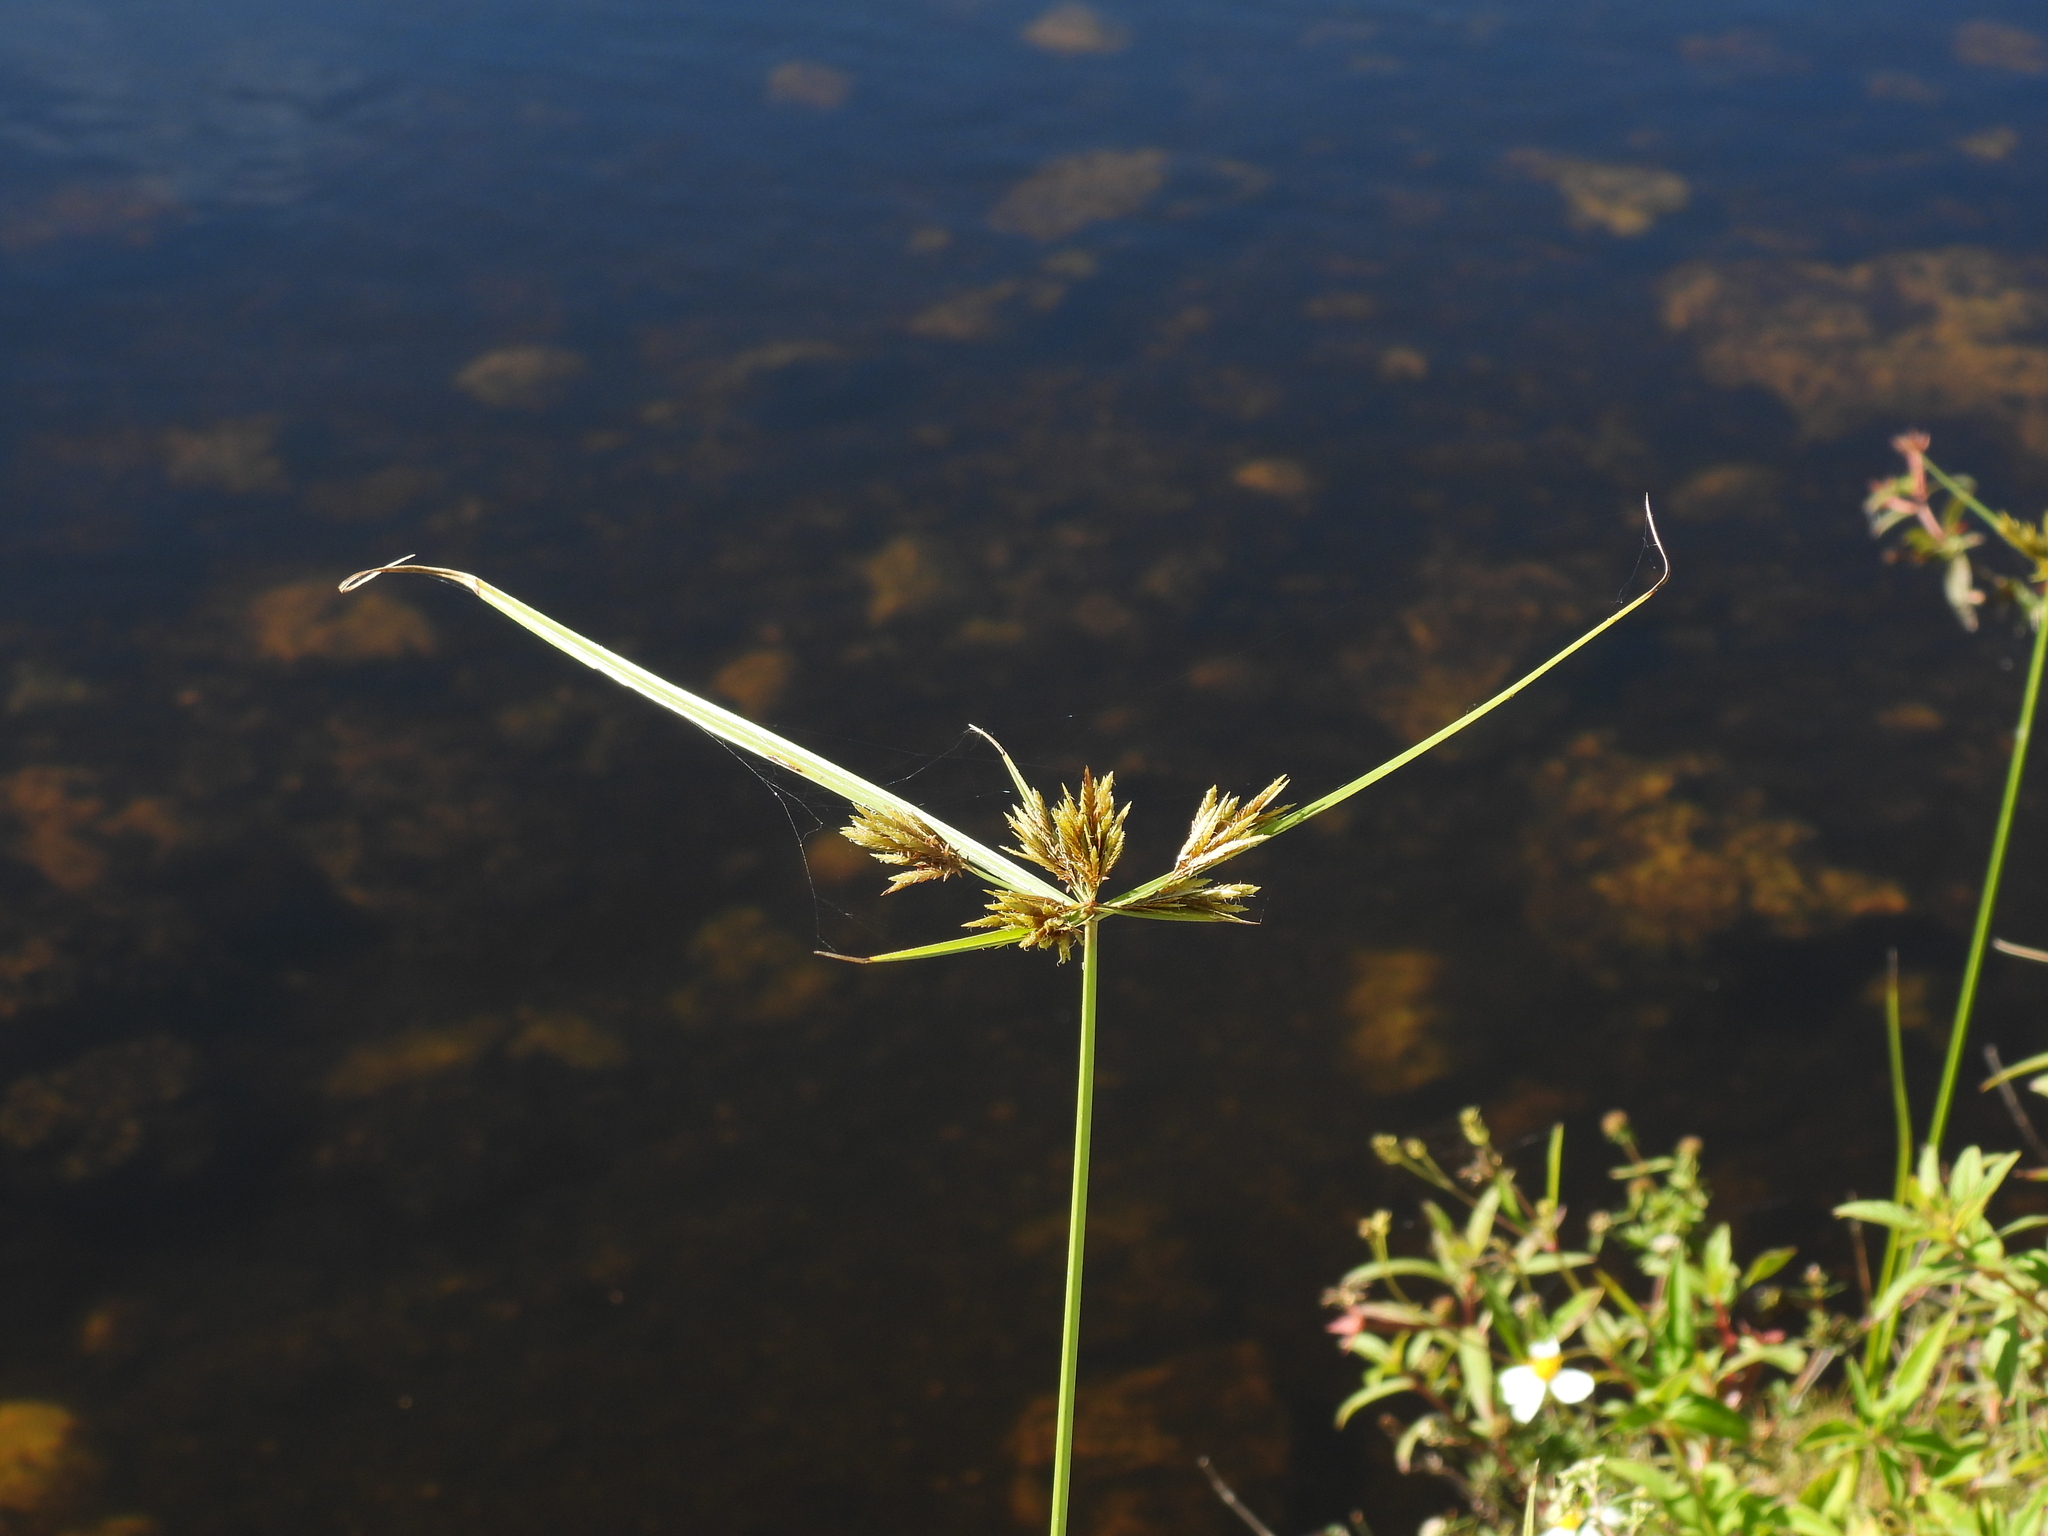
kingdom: Plantae
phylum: Tracheophyta
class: Liliopsida
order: Poales
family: Cyperaceae
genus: Cyperus
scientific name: Cyperus polystachyos
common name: Bunchy flat sedge
